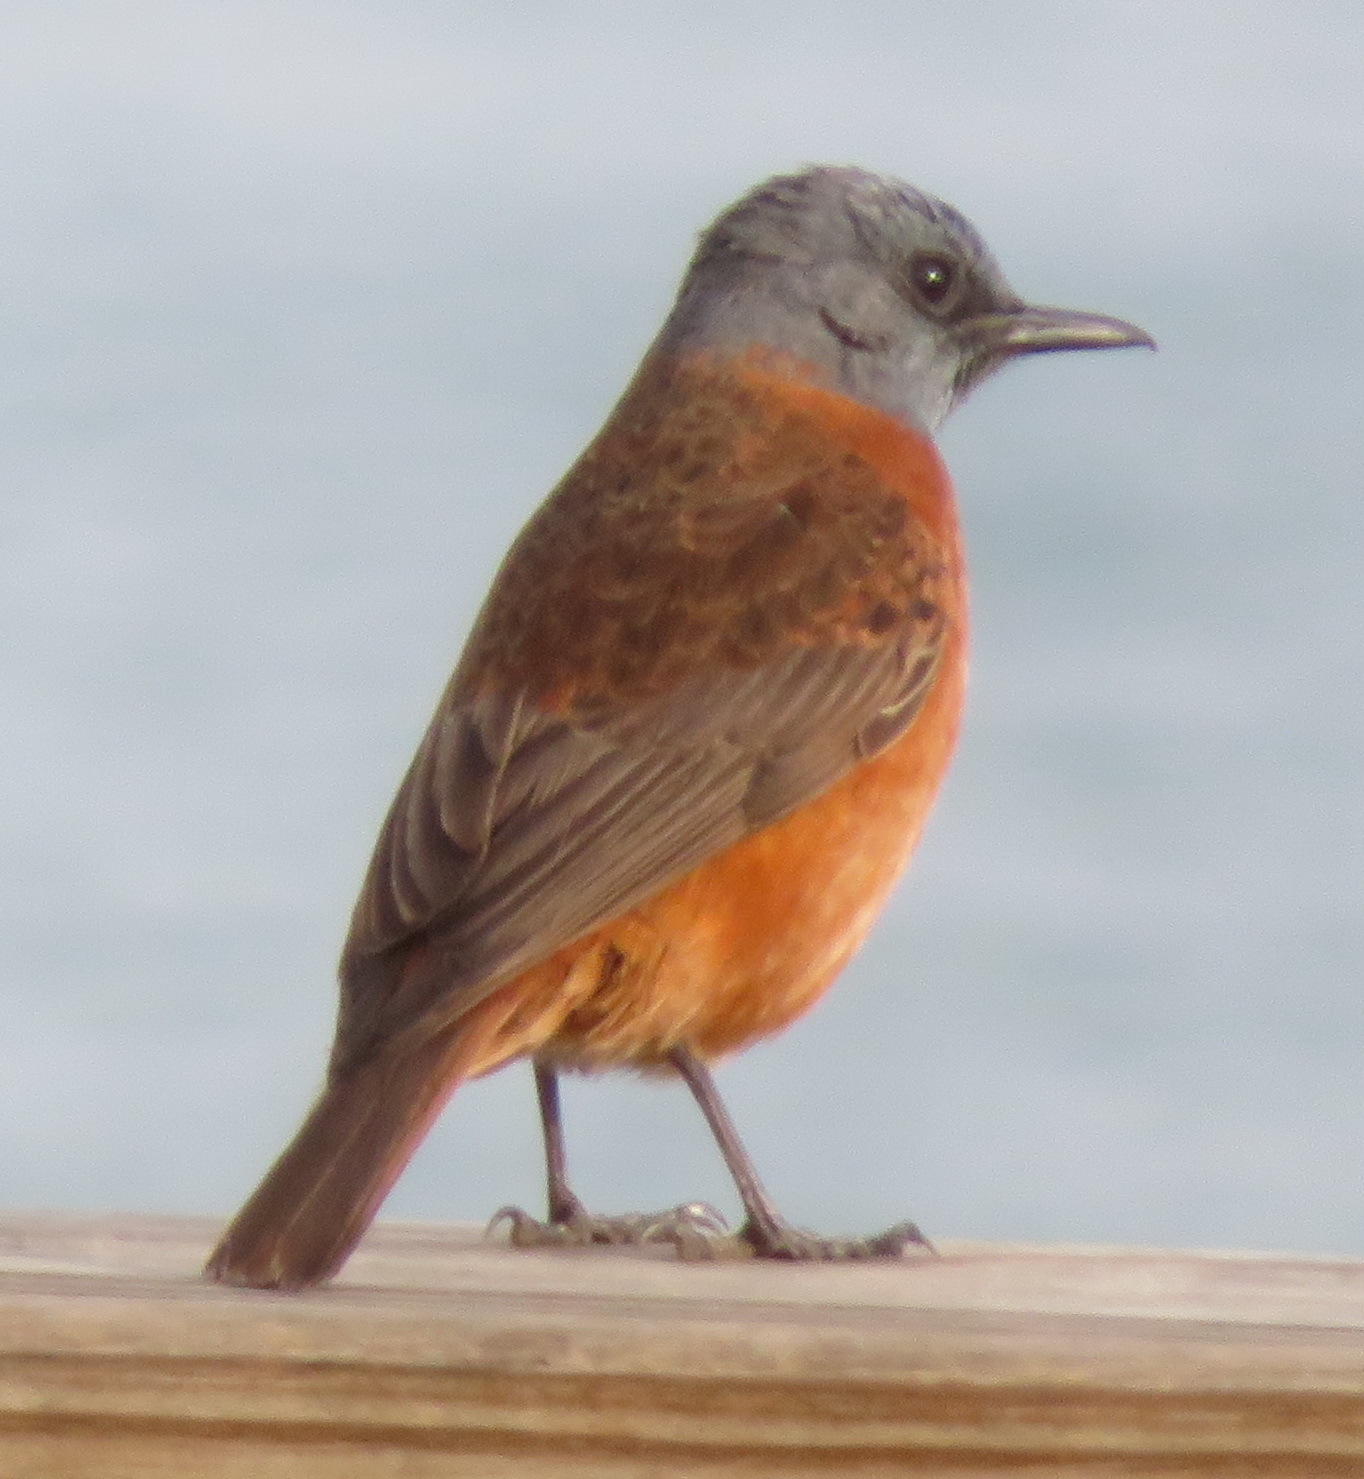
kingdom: Animalia
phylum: Chordata
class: Aves
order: Passeriformes
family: Muscicapidae
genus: Monticola
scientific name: Monticola rupestris
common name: Cape rock thrush
